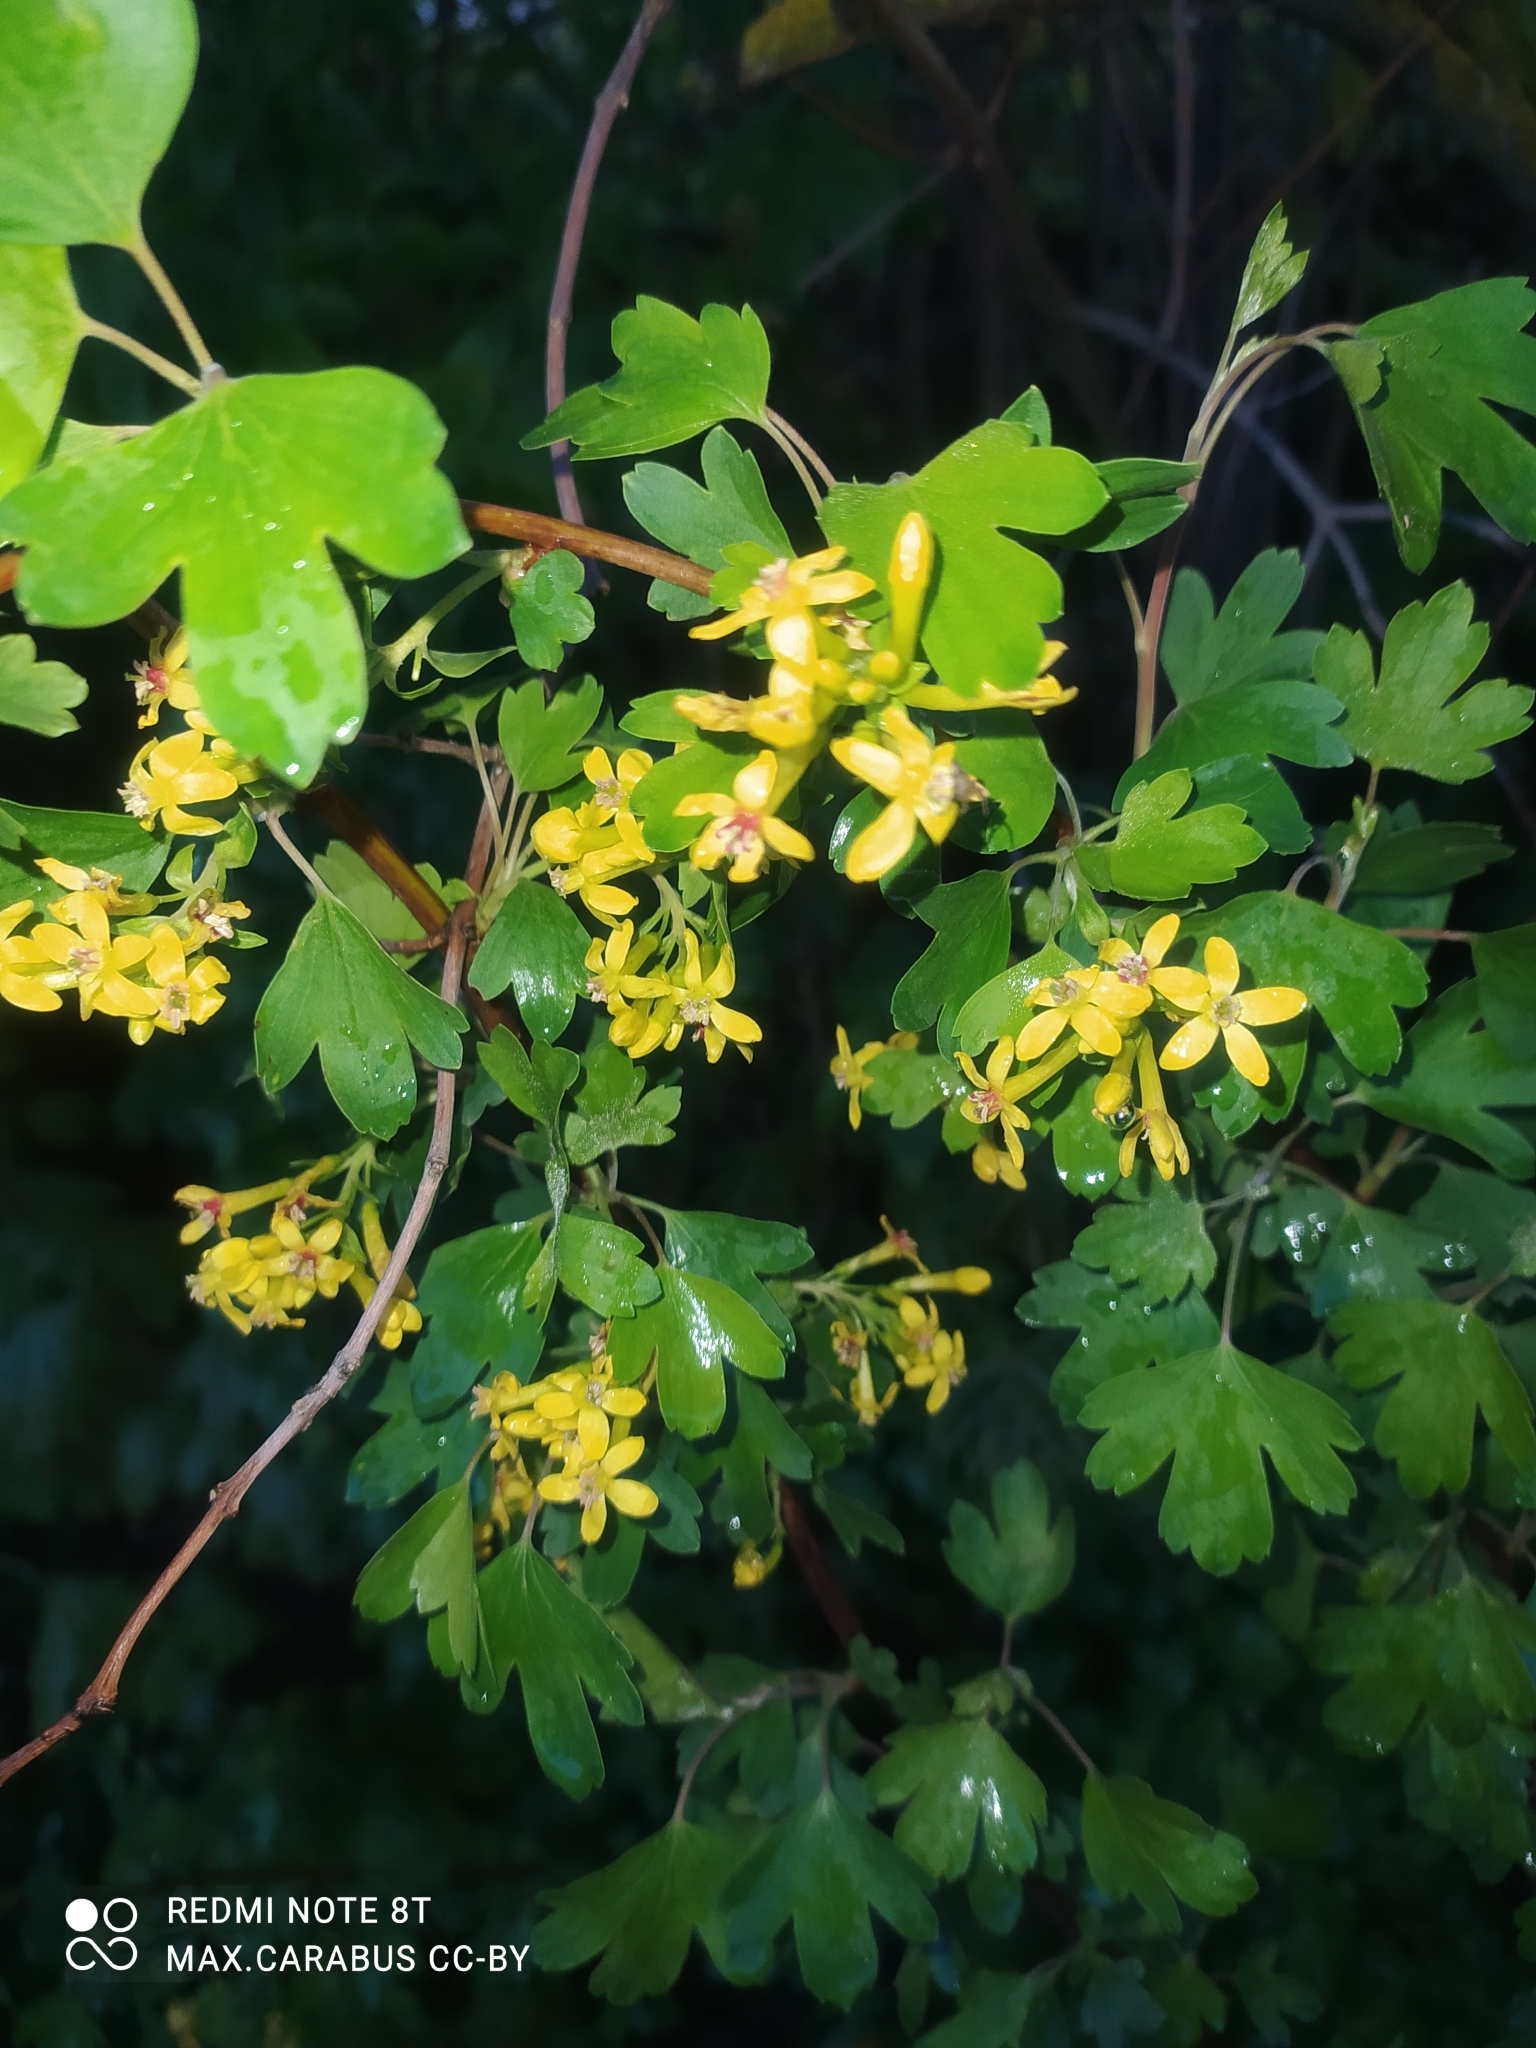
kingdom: Plantae
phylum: Tracheophyta
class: Magnoliopsida
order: Saxifragales
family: Grossulariaceae
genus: Ribes
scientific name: Ribes aureum
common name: Golden currant
